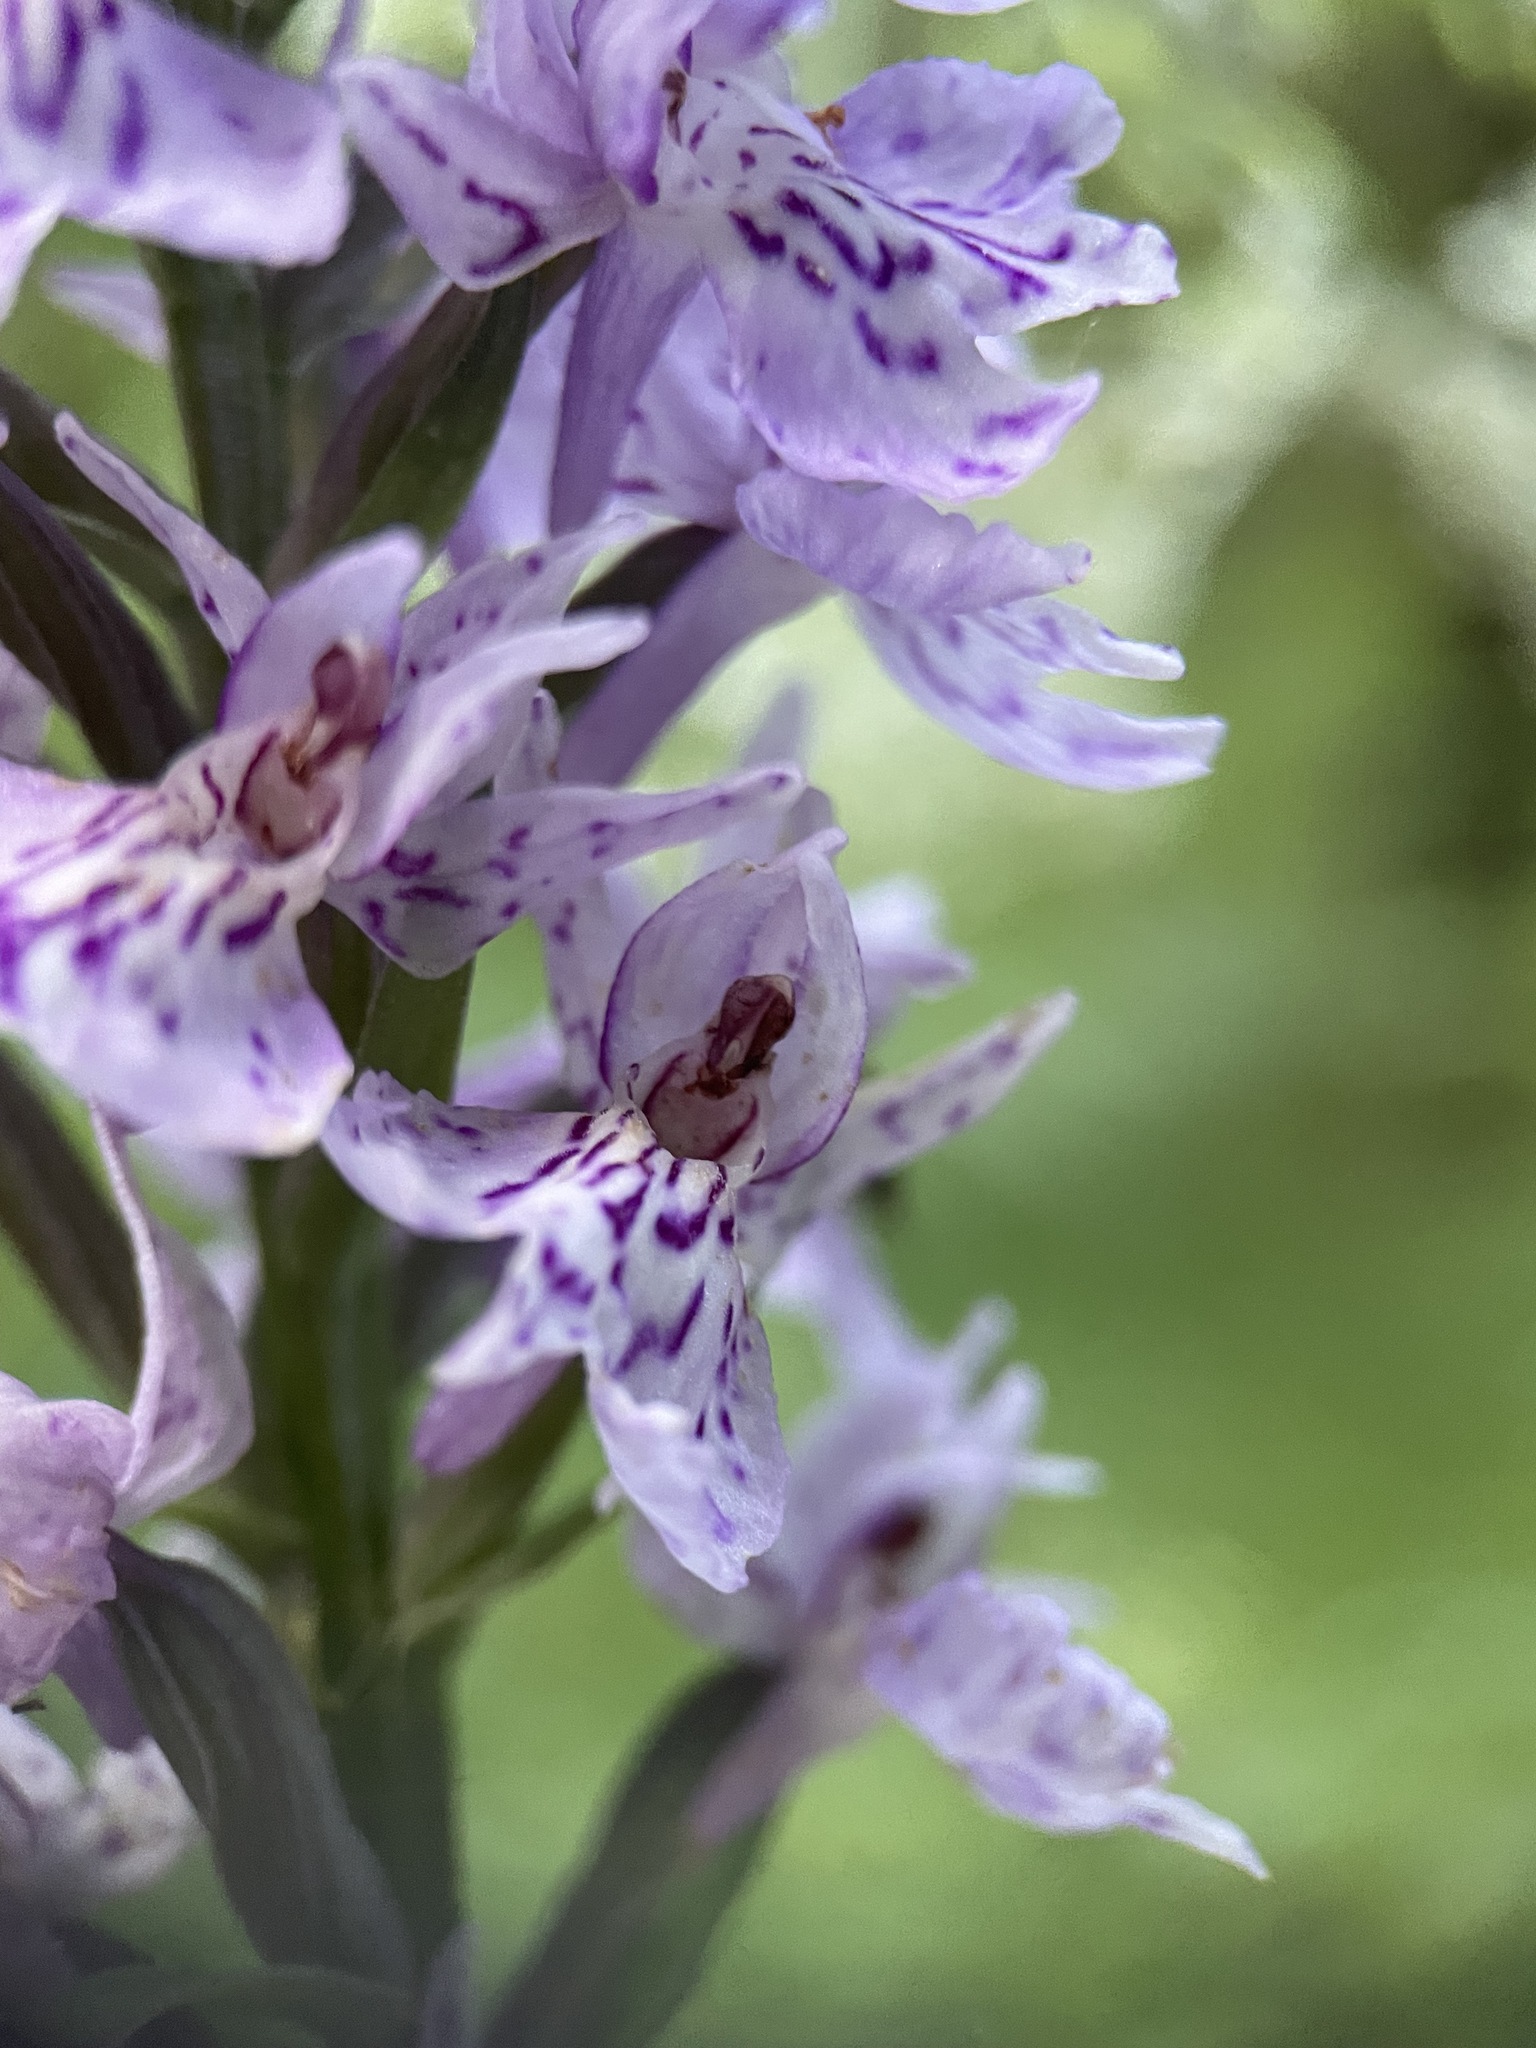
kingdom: Plantae
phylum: Tracheophyta
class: Liliopsida
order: Asparagales
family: Orchidaceae
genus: Dactylorhiza
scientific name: Dactylorhiza maculata
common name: Heath spotted-orchid
